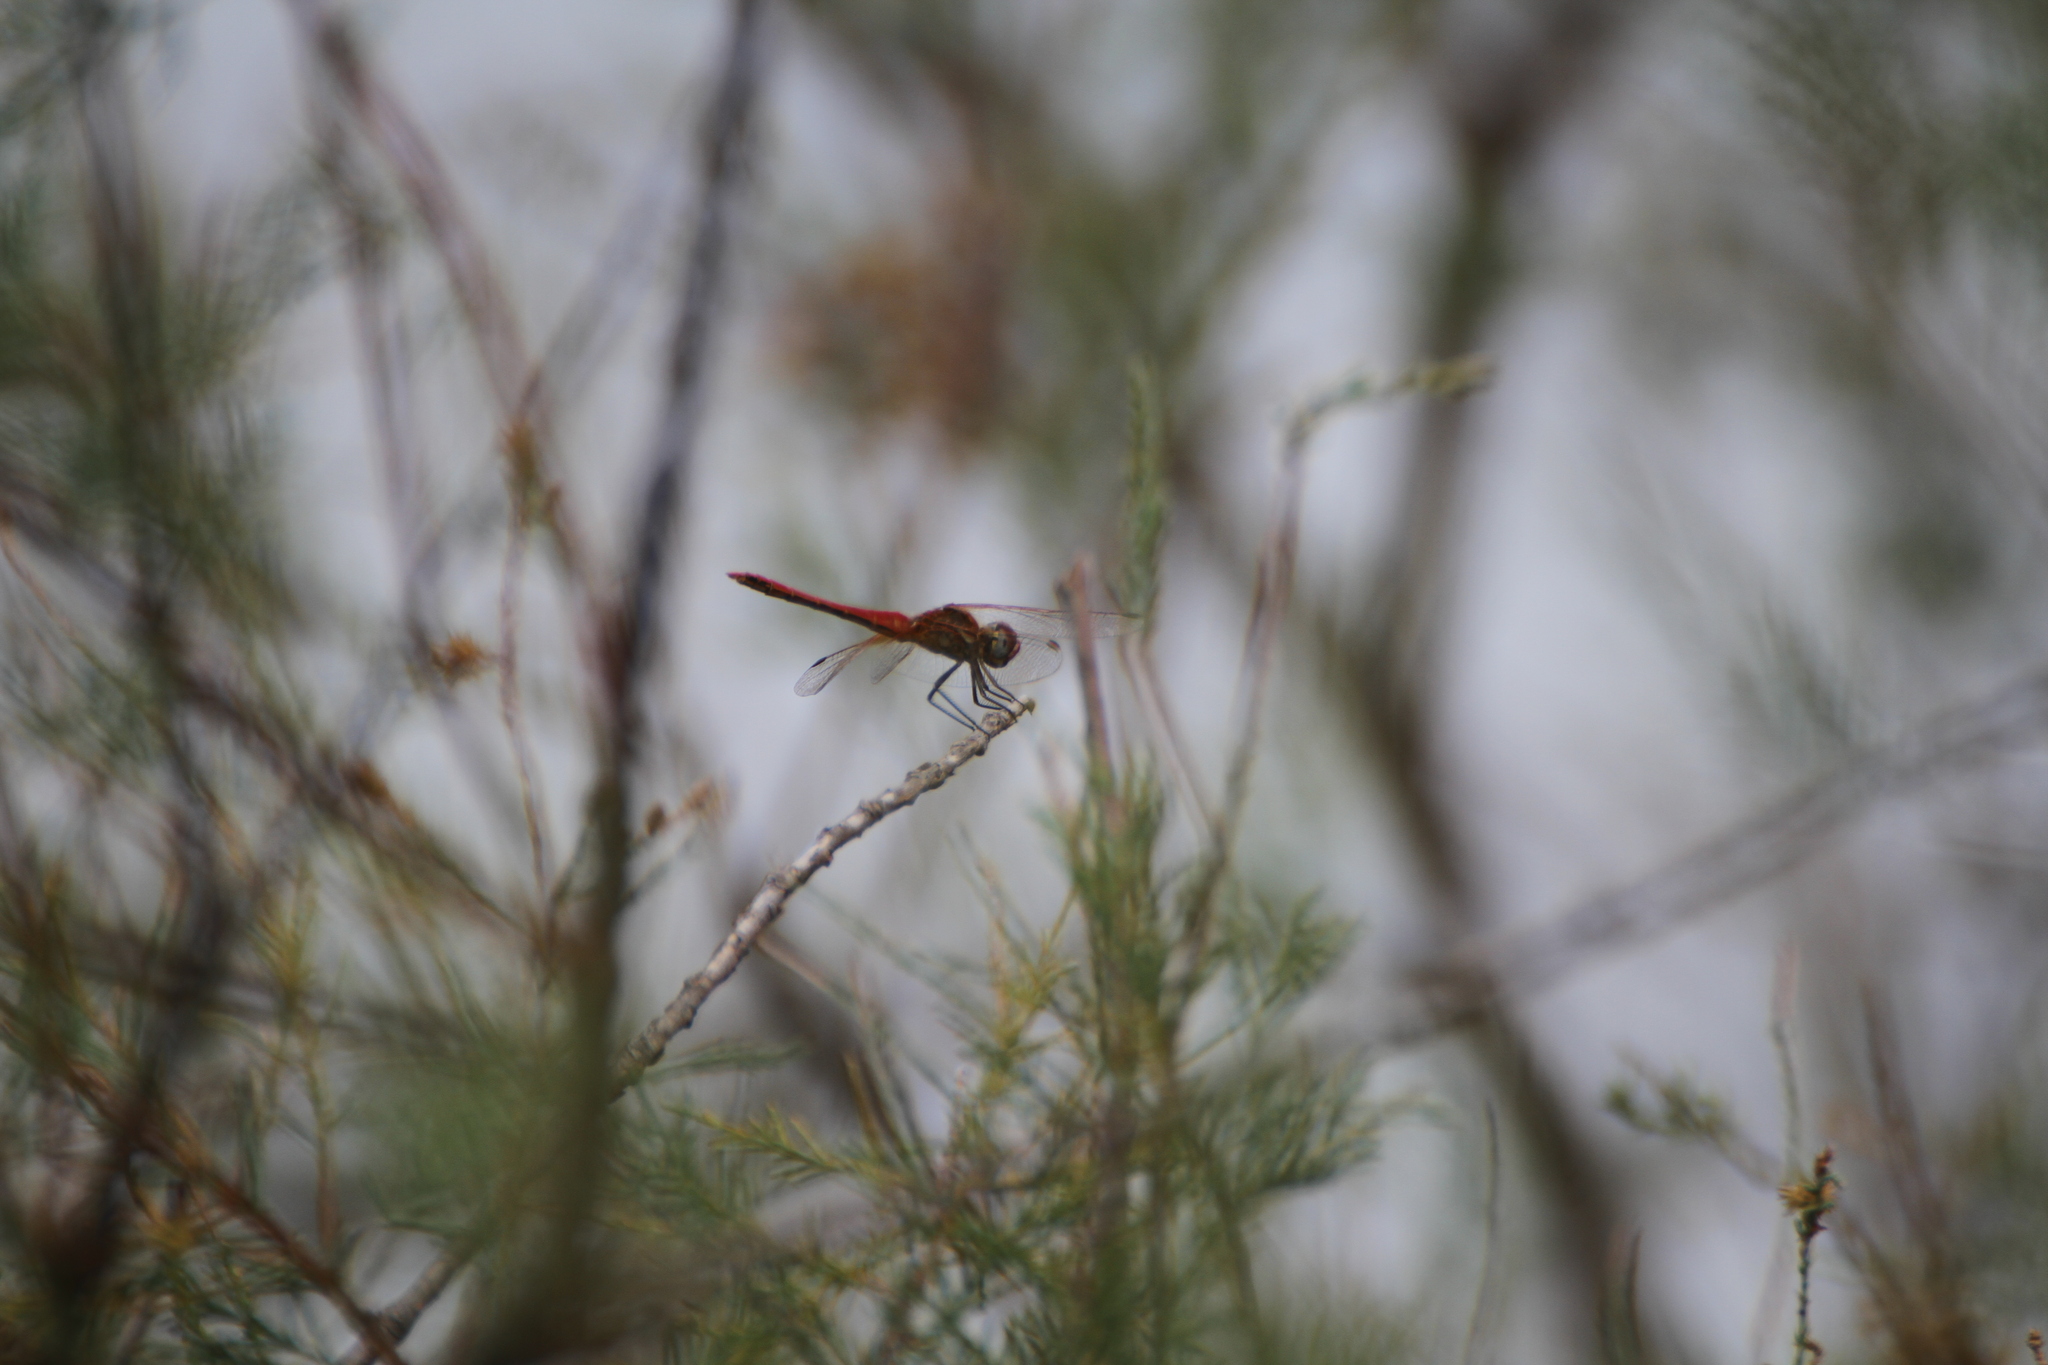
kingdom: Animalia
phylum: Arthropoda
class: Insecta
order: Odonata
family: Libellulidae
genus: Sympetrum
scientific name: Sympetrum fonscolombii
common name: Red-veined darter
